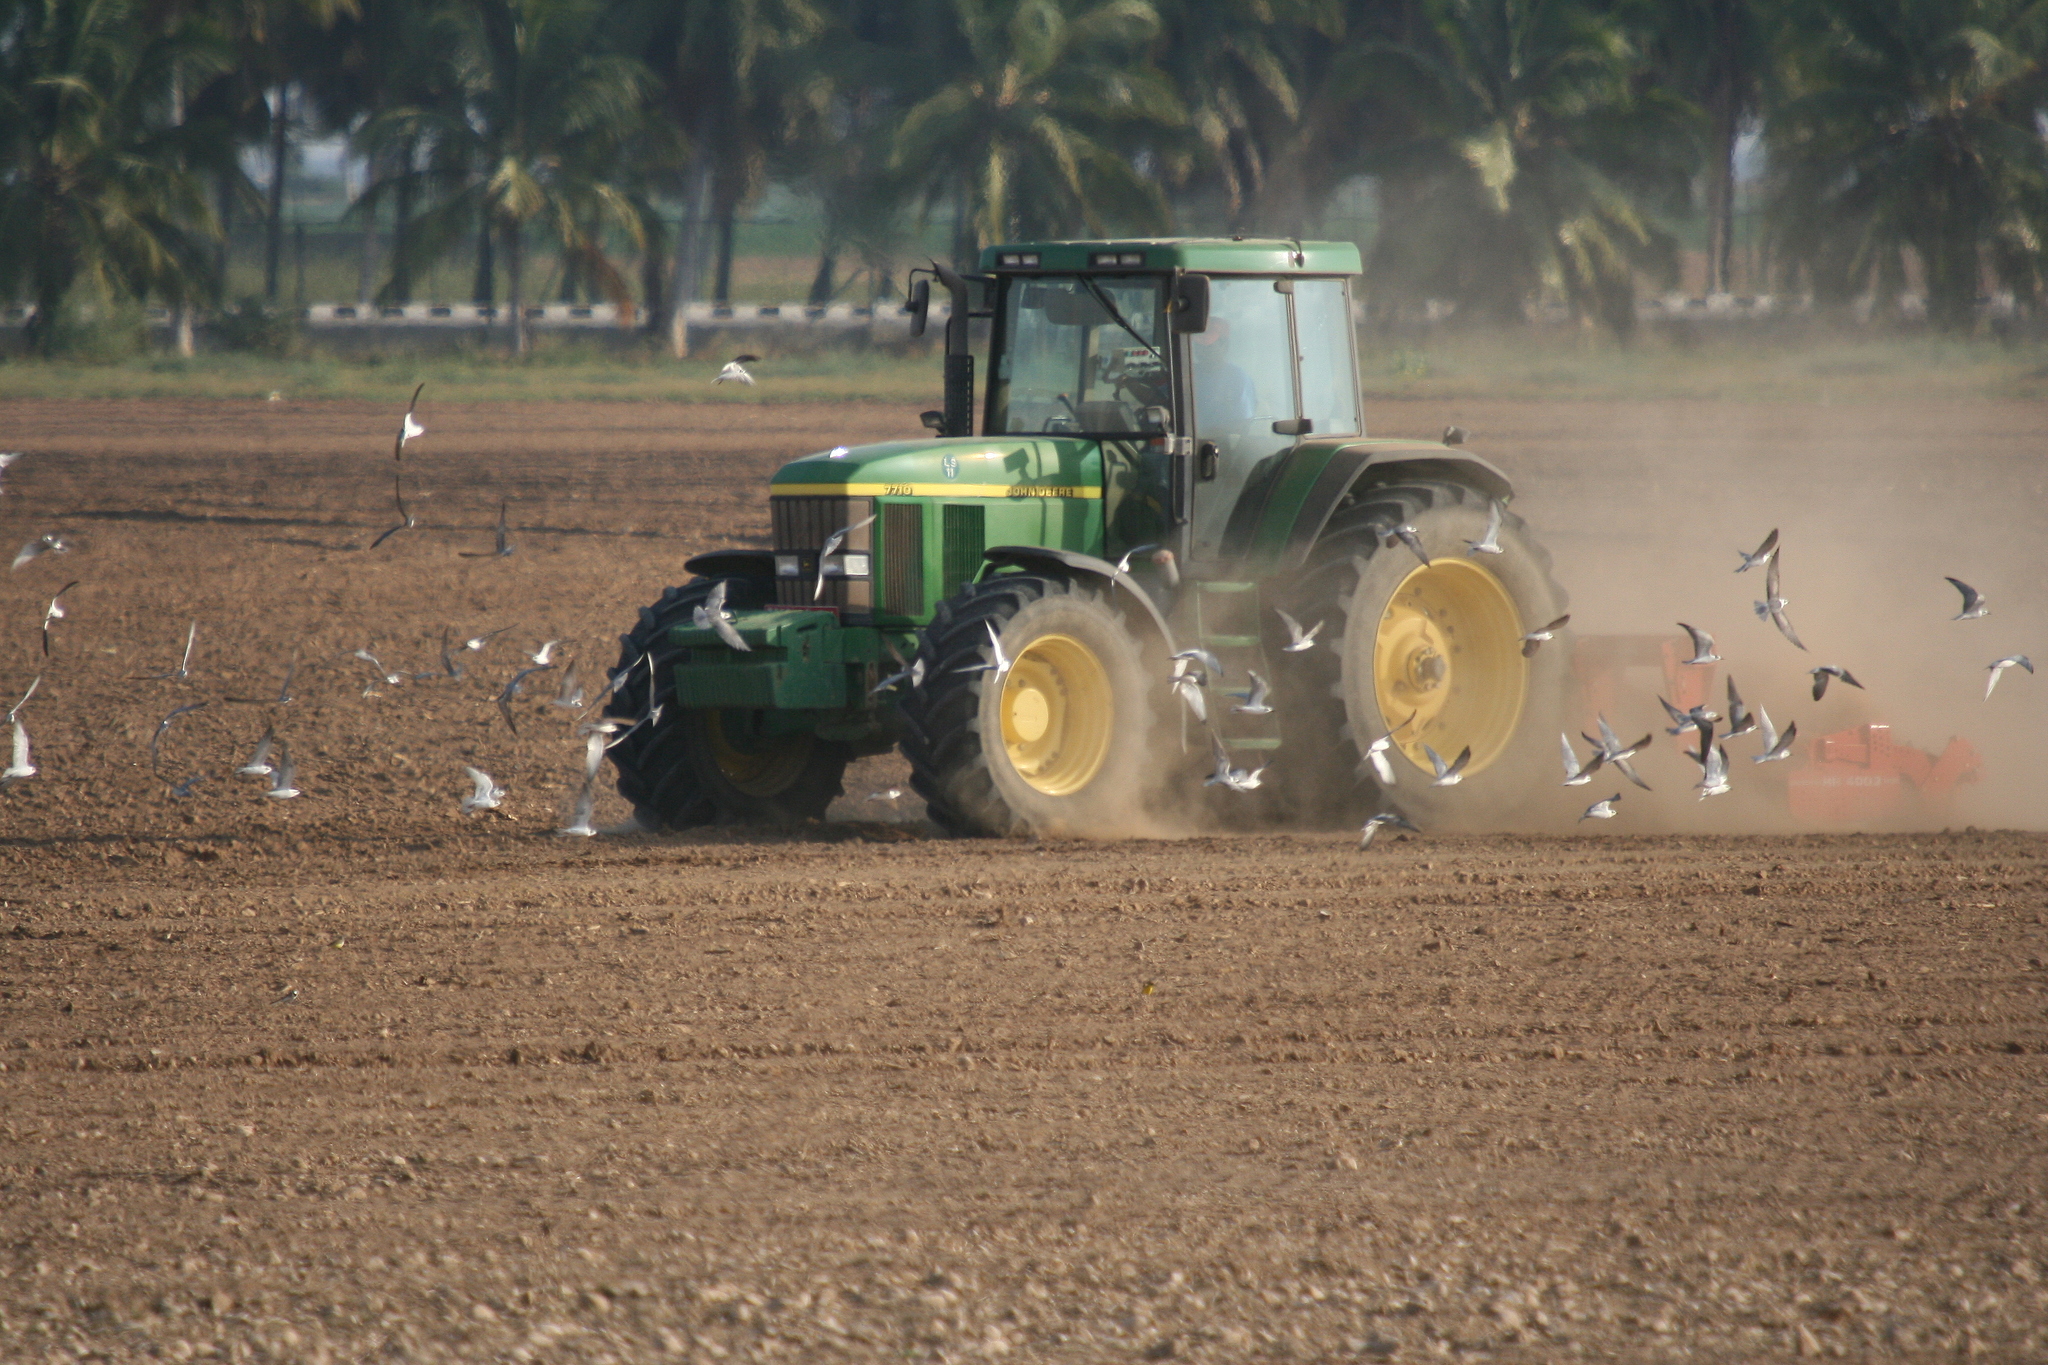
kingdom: Animalia
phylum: Chordata
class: Aves
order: Charadriiformes
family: Laridae
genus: Chlidonias
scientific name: Chlidonias leucopterus
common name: White-winged tern
